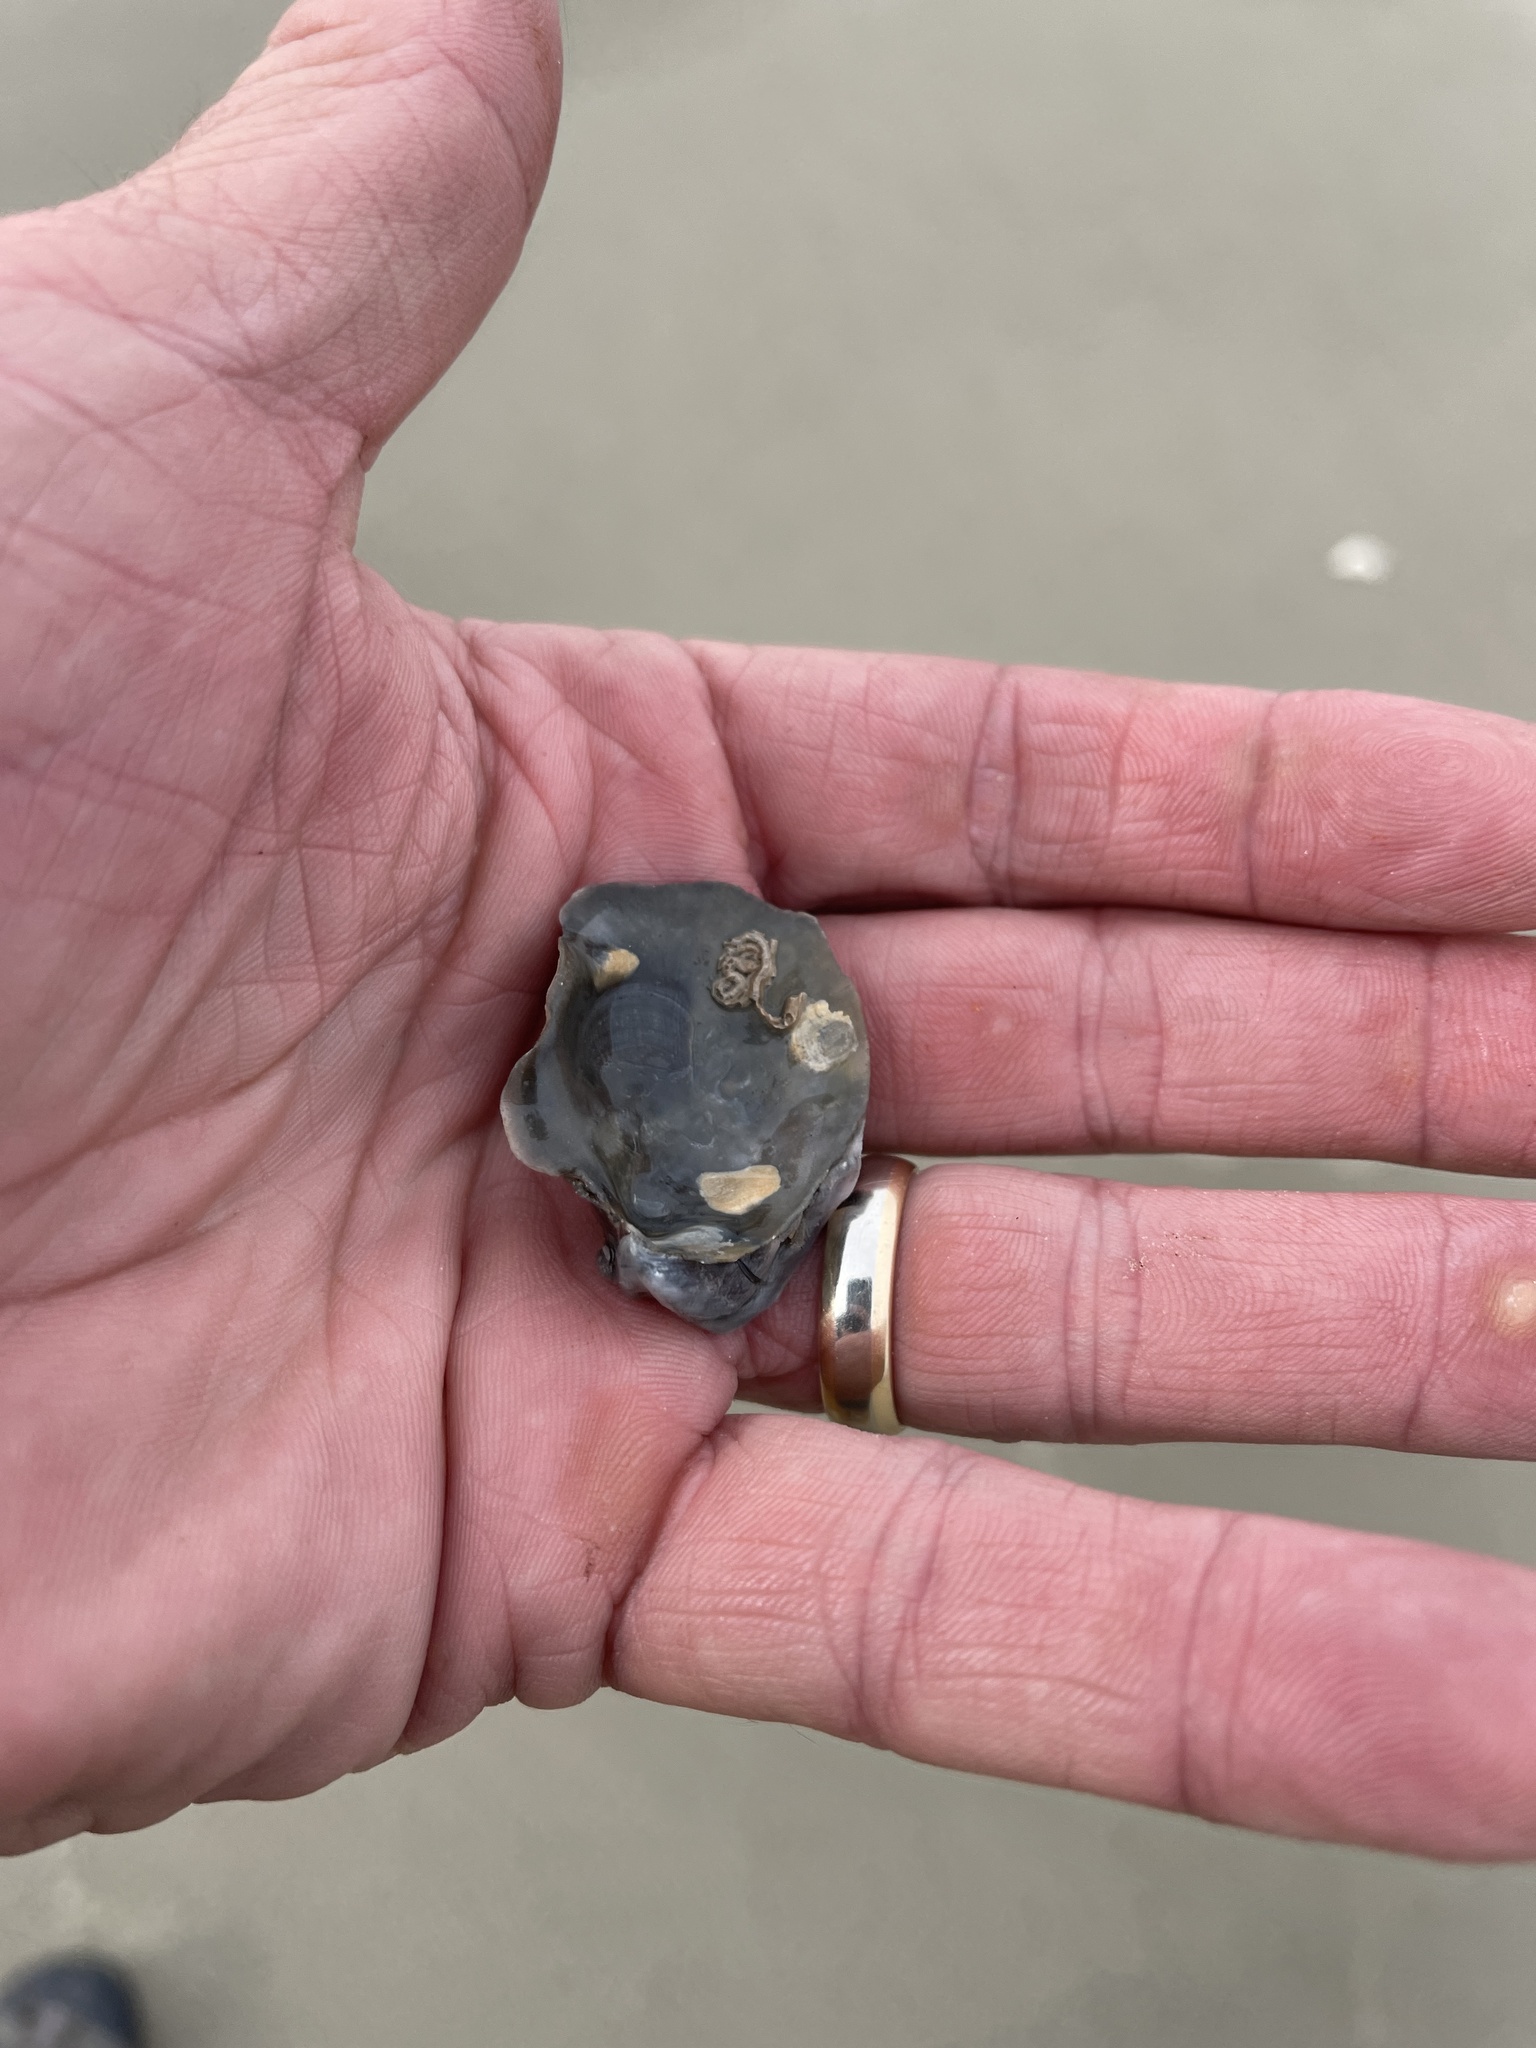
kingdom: Animalia
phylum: Mollusca
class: Bivalvia
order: Ostreida
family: Ostreidae
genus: Crassostrea
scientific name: Crassostrea virginica
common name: American oyster
